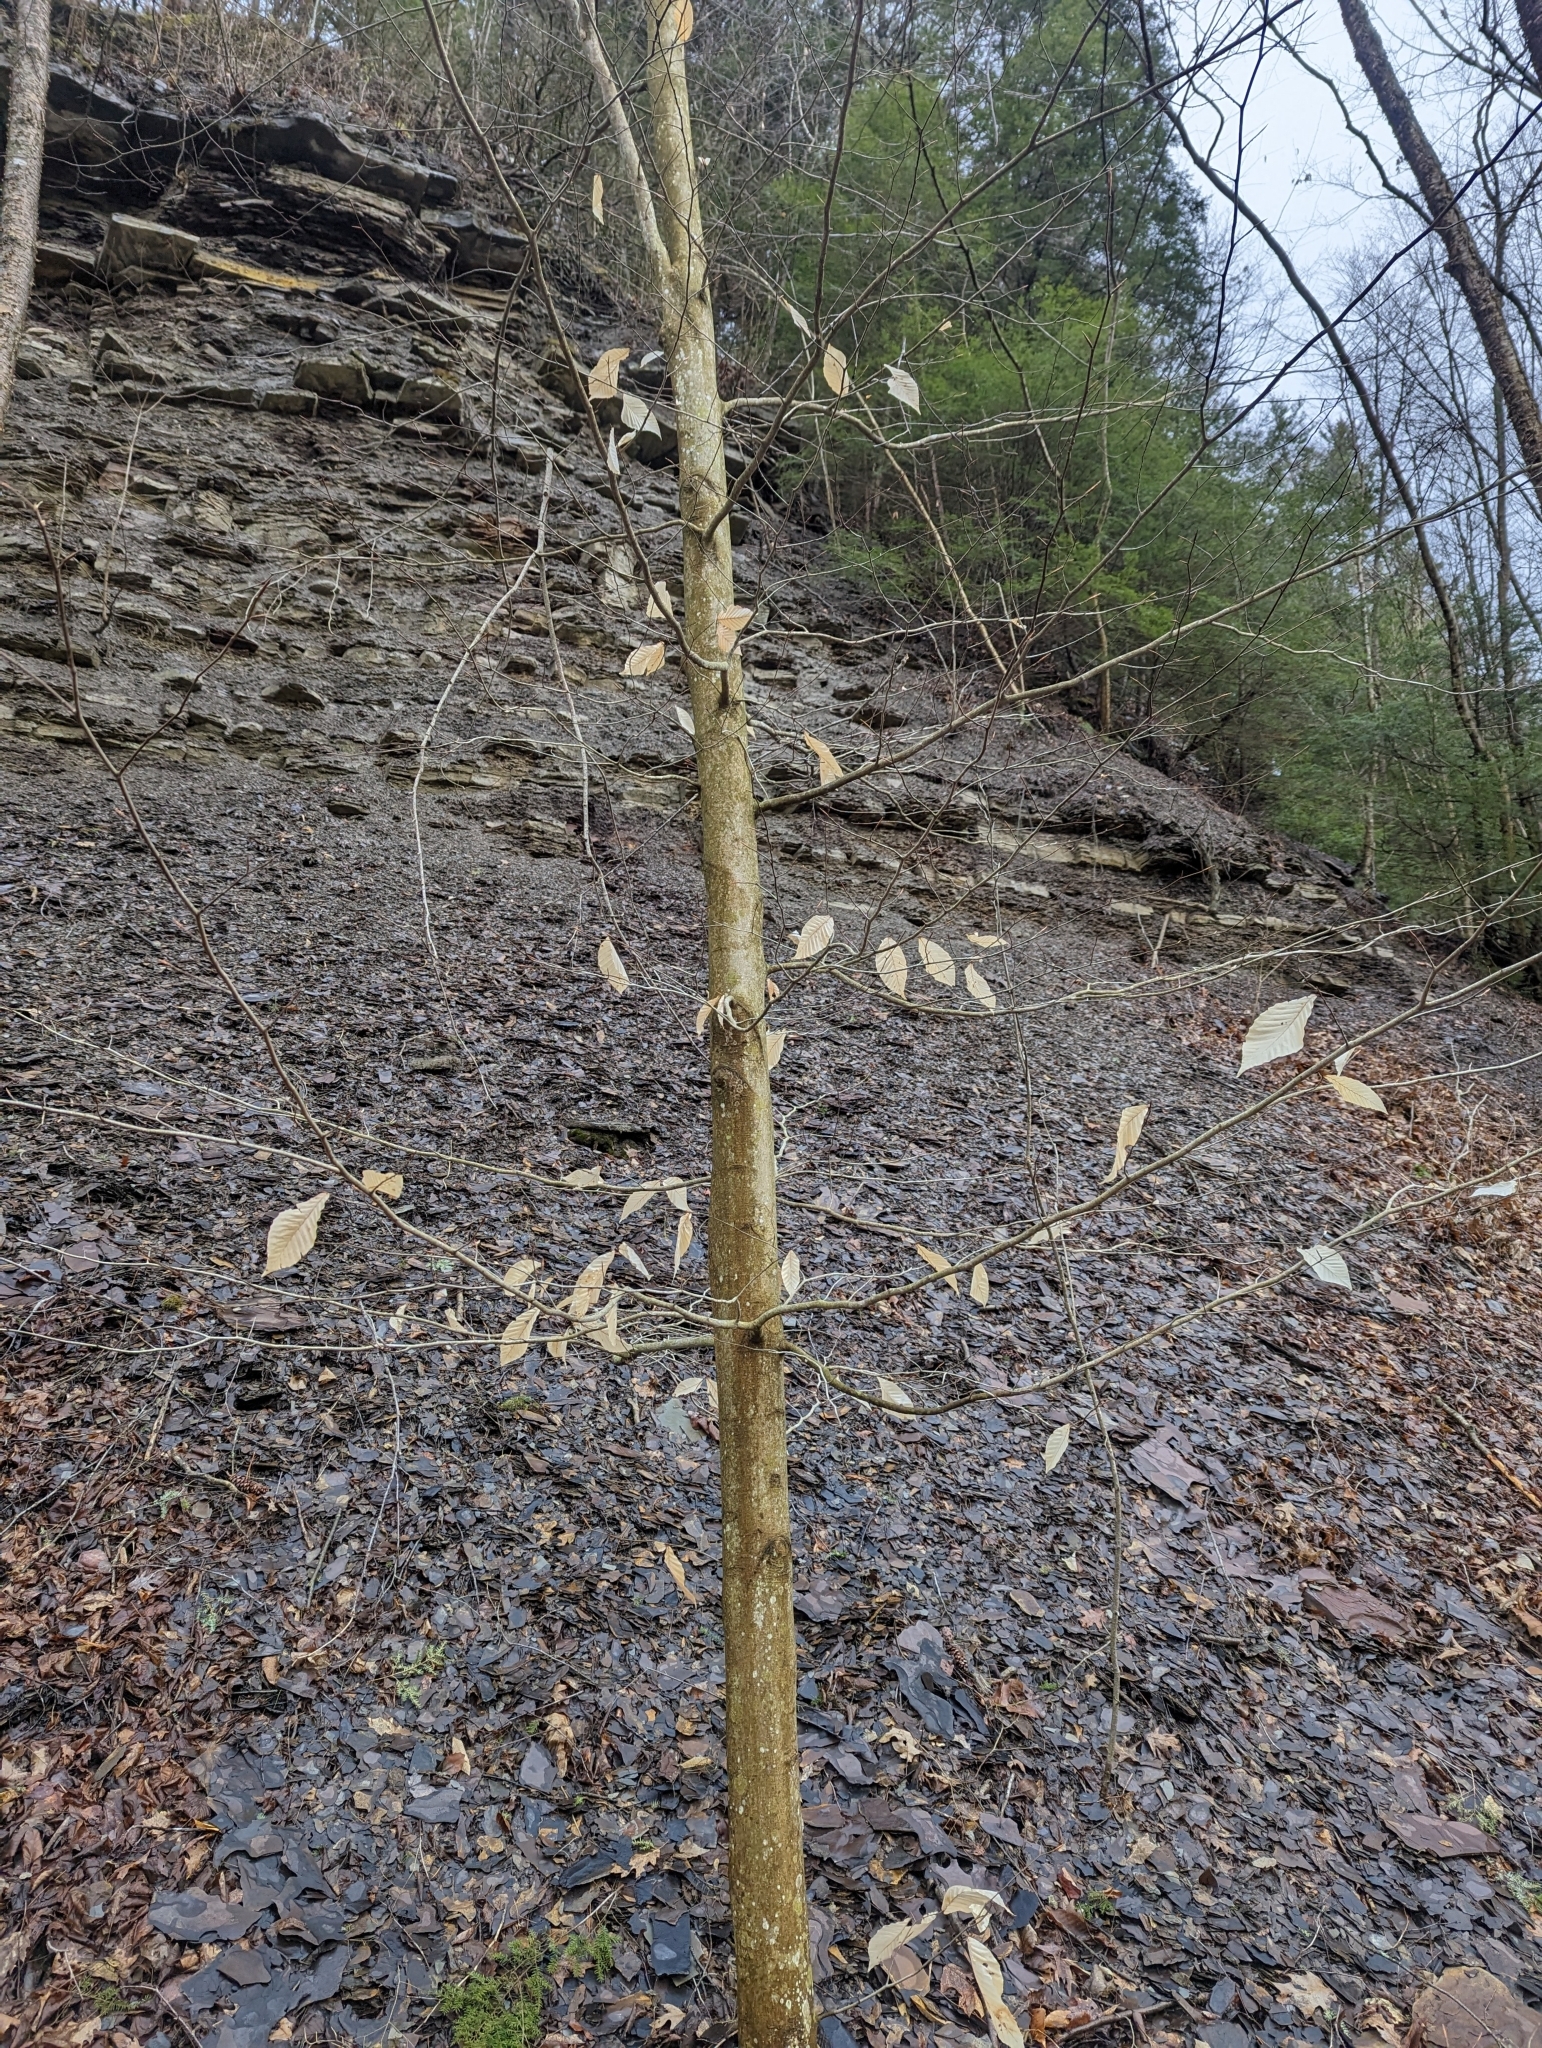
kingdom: Plantae
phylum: Tracheophyta
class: Magnoliopsida
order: Fagales
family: Fagaceae
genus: Fagus
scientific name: Fagus grandifolia
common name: American beech
